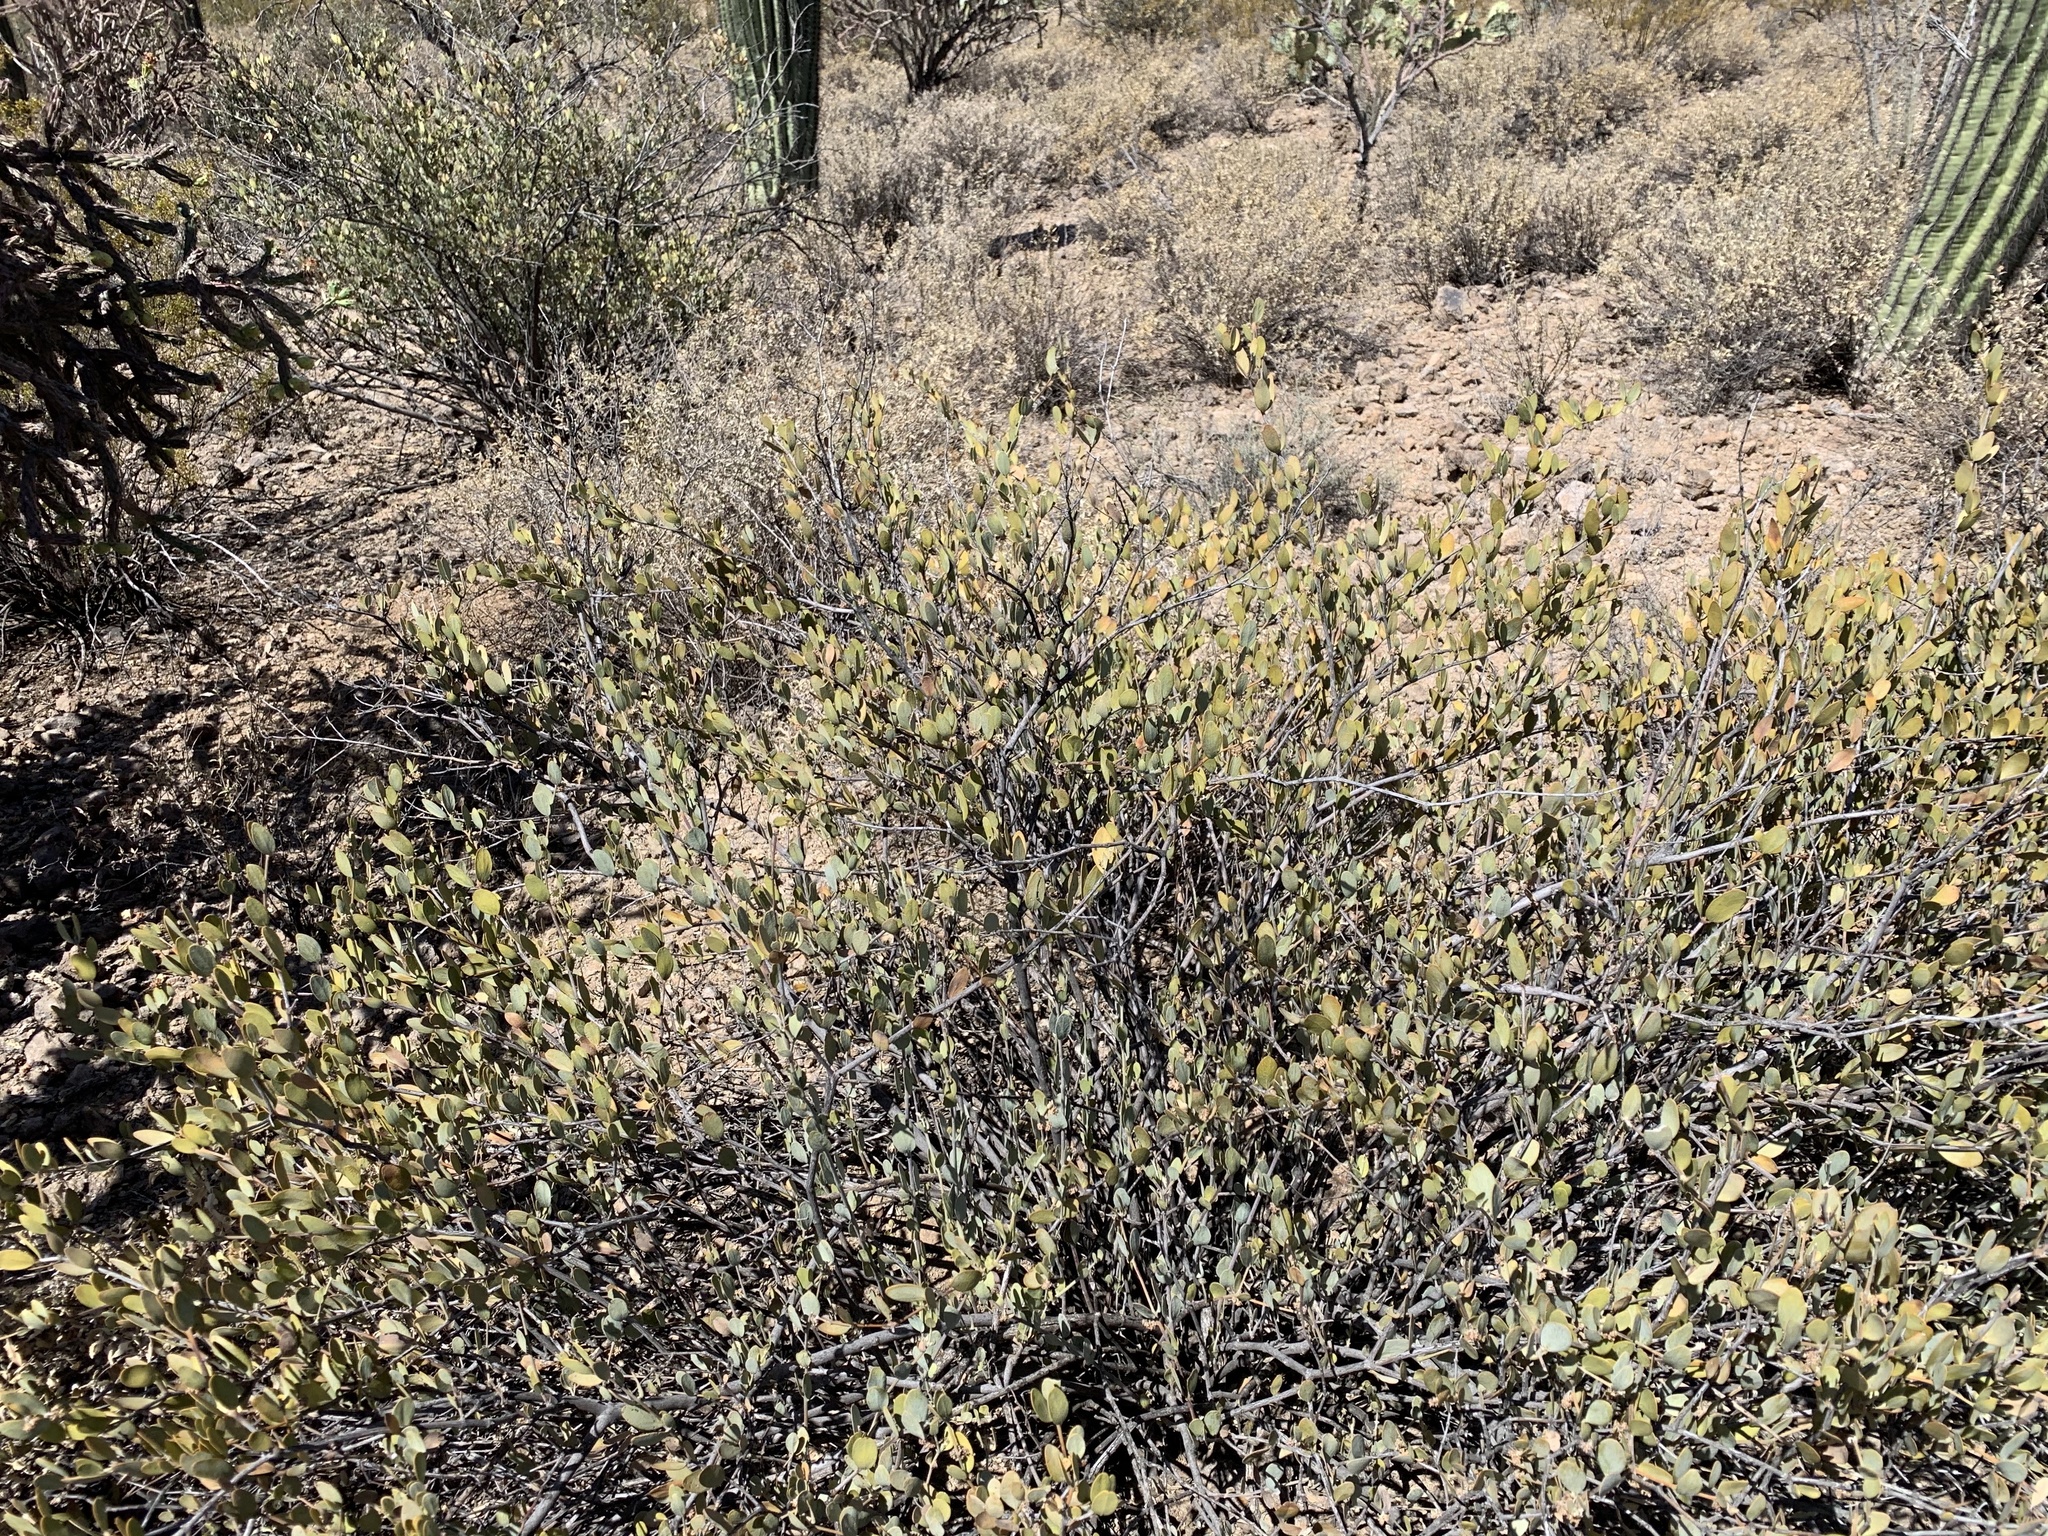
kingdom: Plantae
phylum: Tracheophyta
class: Magnoliopsida
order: Caryophyllales
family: Simmondsiaceae
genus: Simmondsia
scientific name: Simmondsia chinensis
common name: Jojoba
